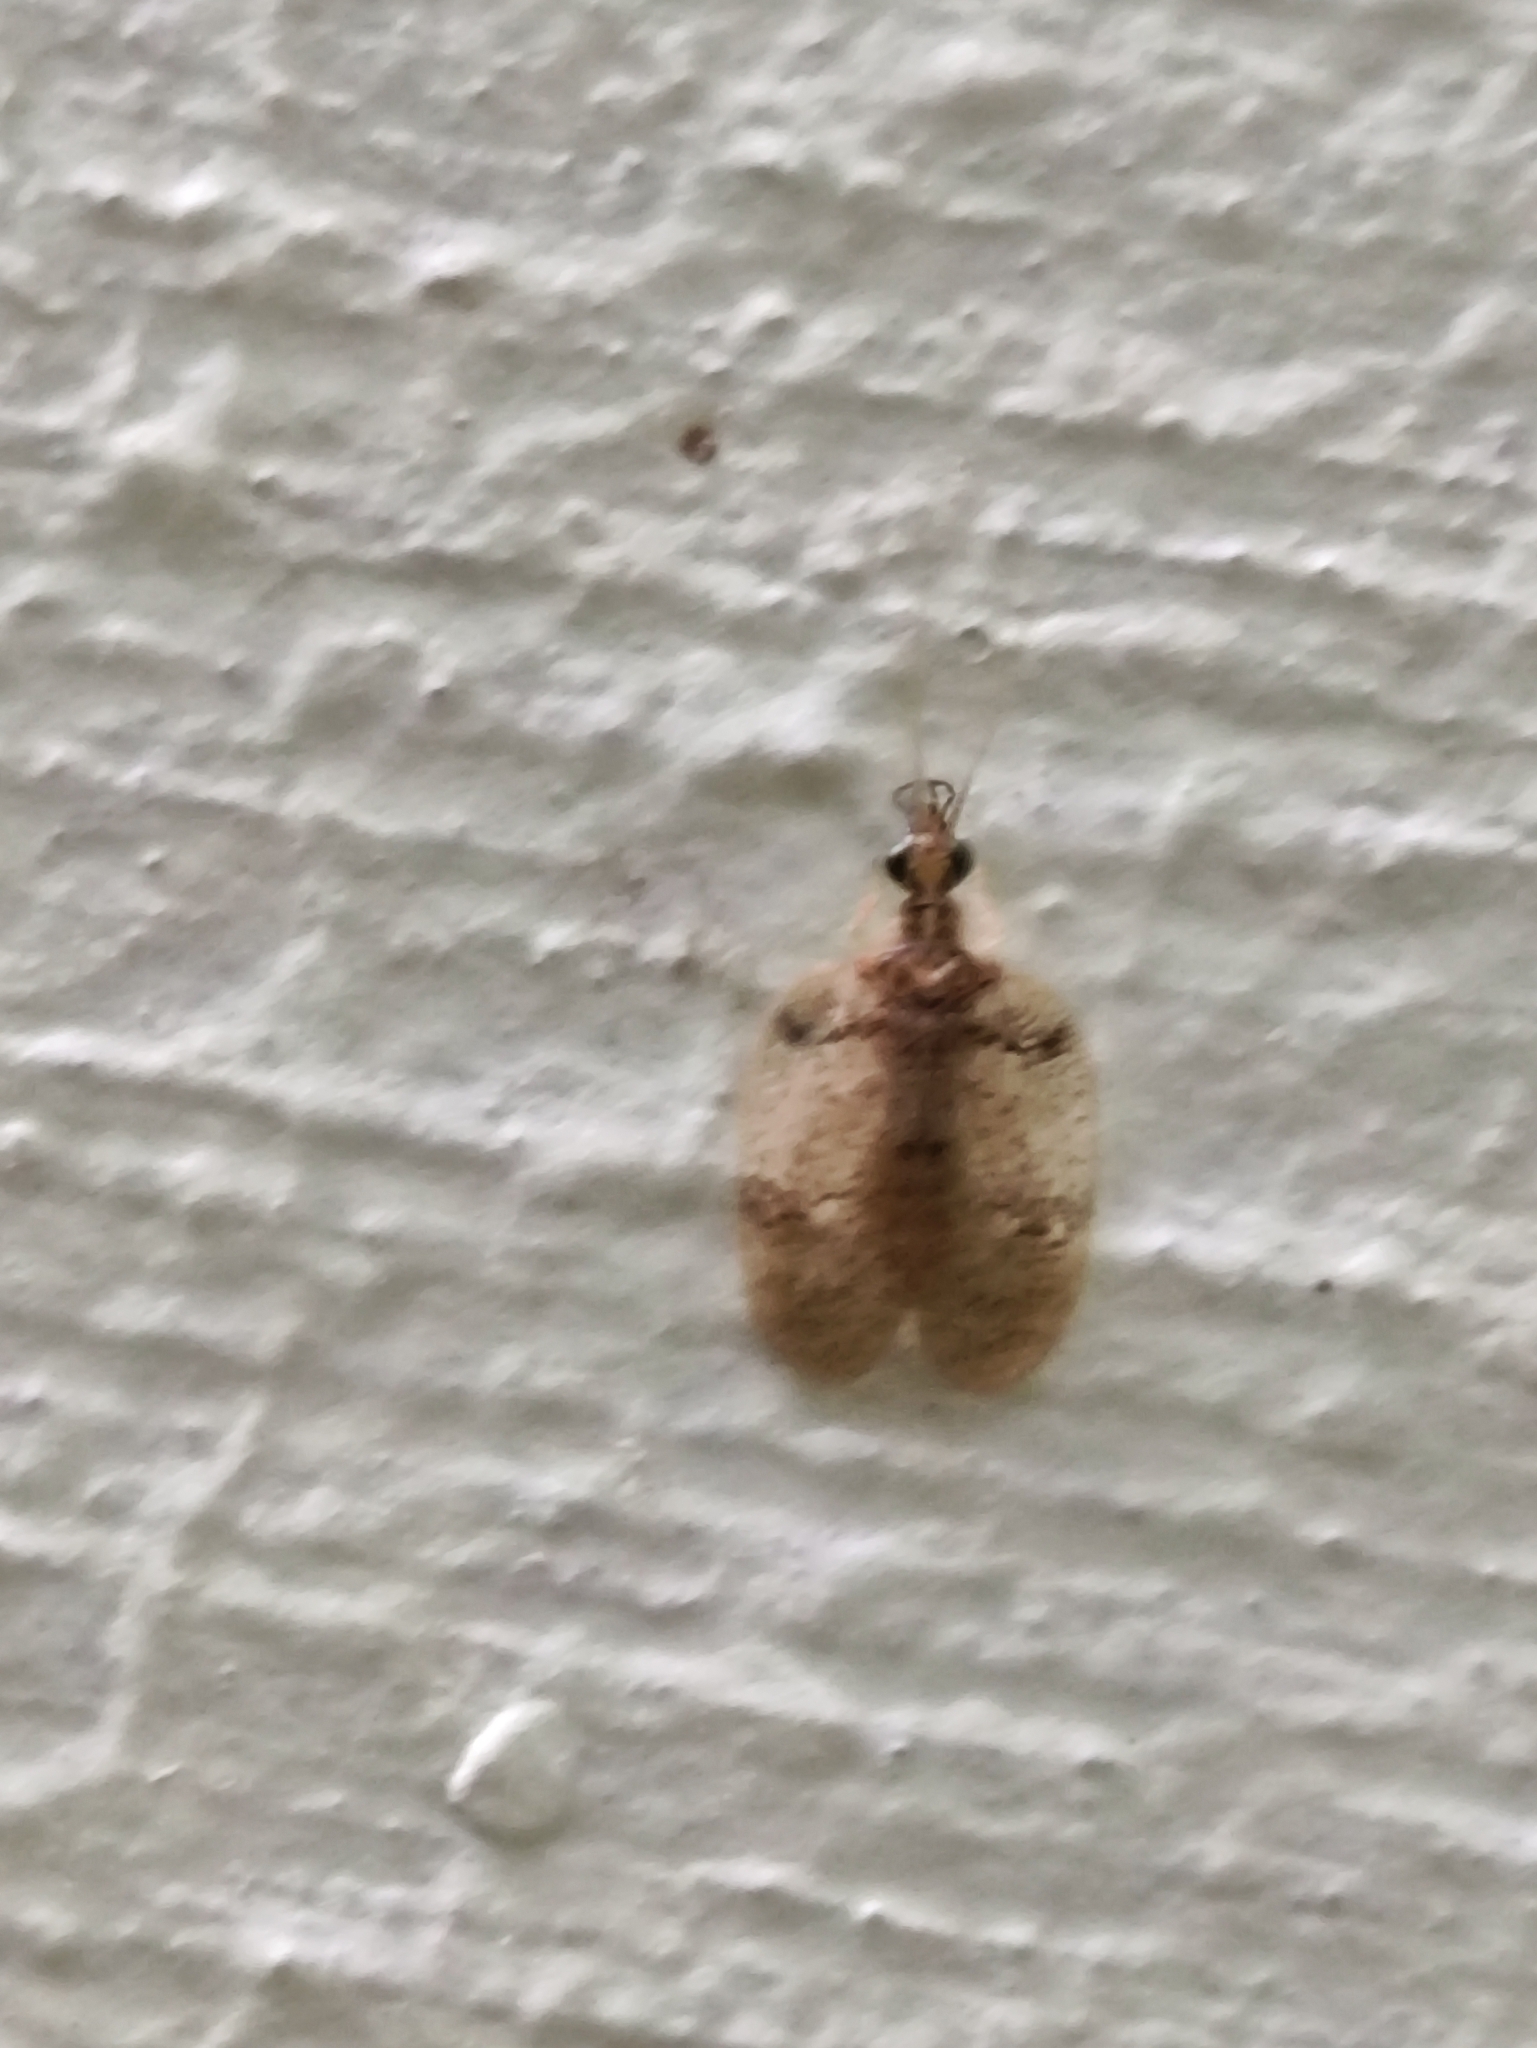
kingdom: Animalia
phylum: Arthropoda
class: Insecta
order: Neuroptera
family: Hemerobiidae
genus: Psectra
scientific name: Psectra iniqua
